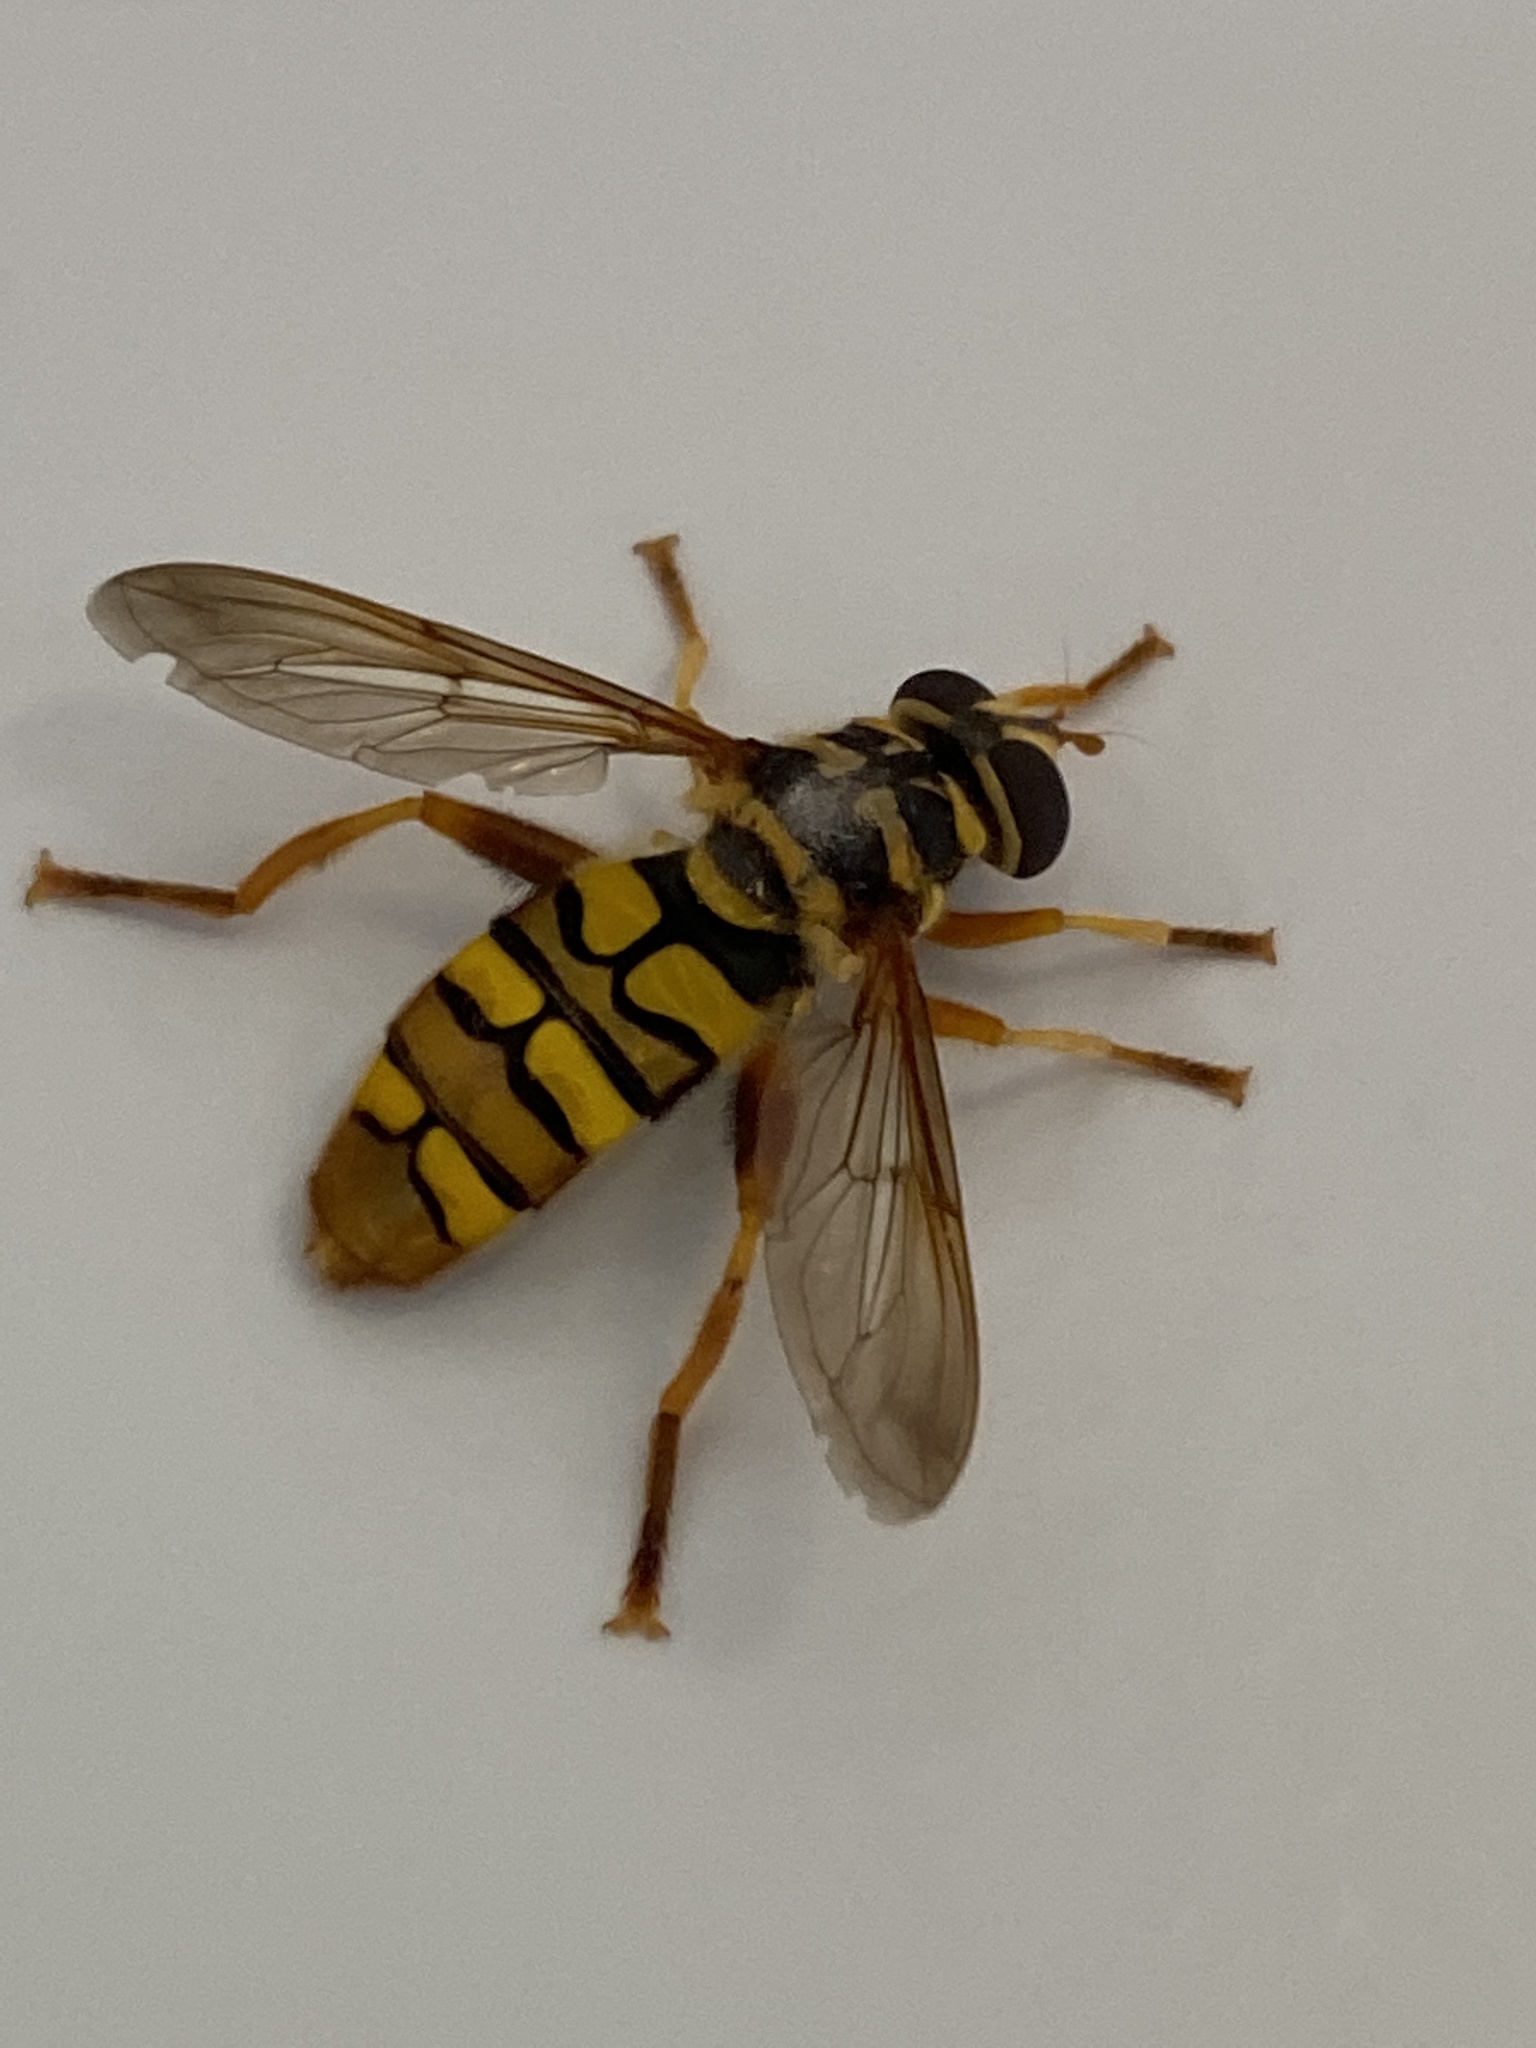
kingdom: Animalia
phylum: Arthropoda
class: Insecta
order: Diptera
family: Syrphidae
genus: Milesia
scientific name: Milesia virginiensis
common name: Virginia giant
